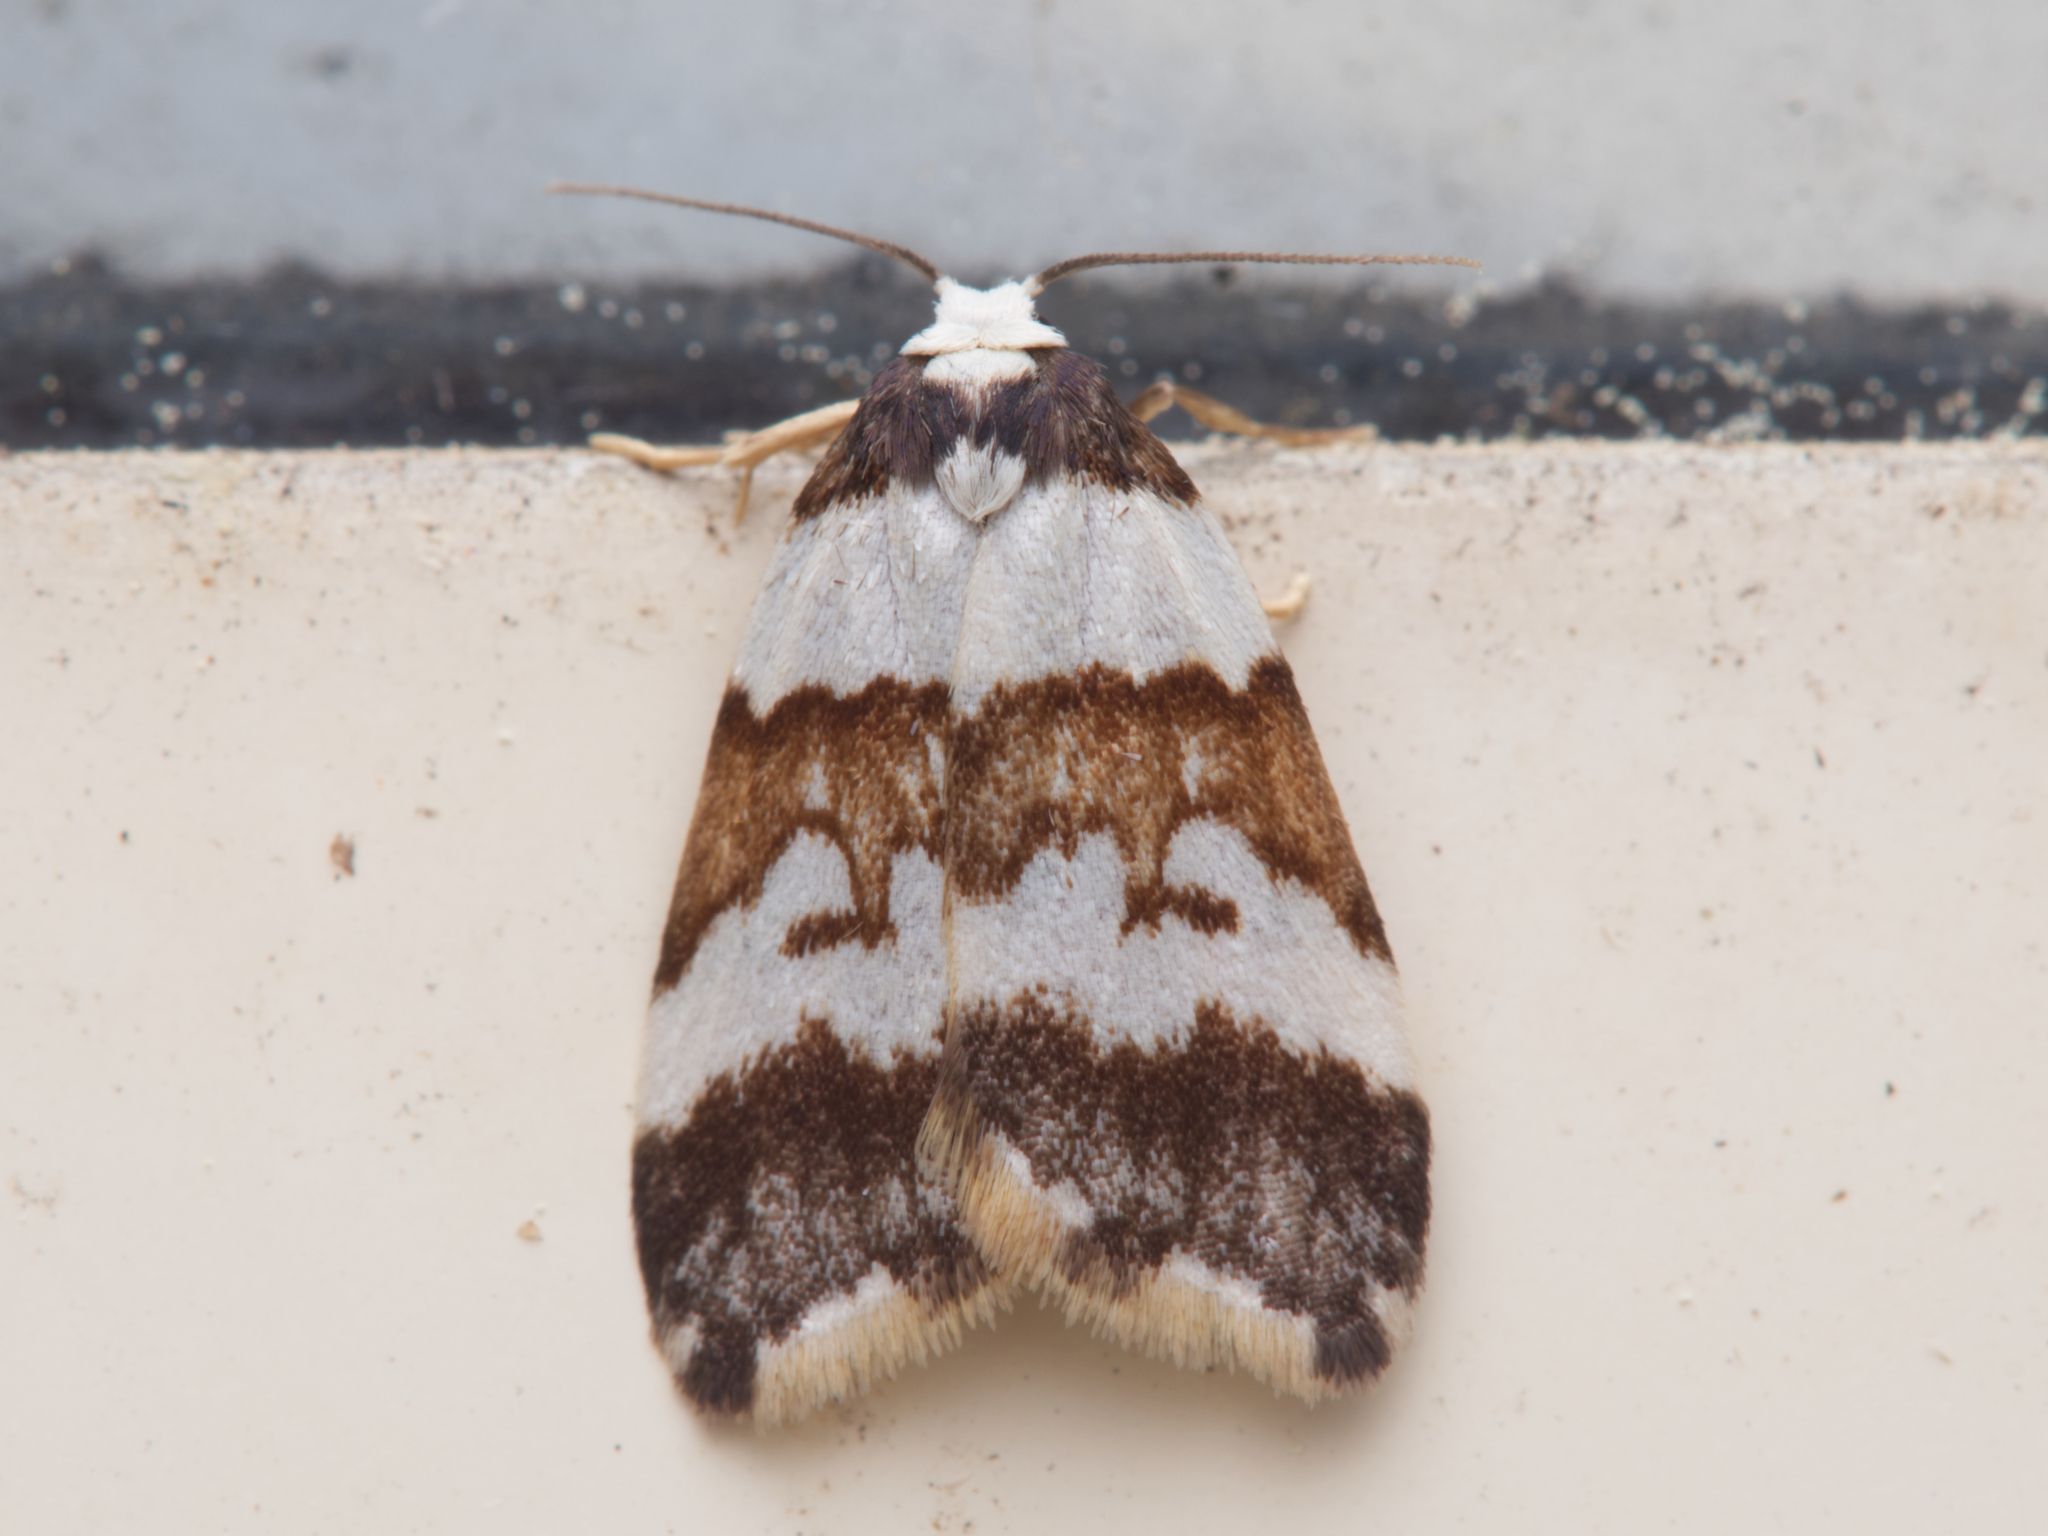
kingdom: Animalia
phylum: Arthropoda
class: Insecta
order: Lepidoptera
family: Erebidae
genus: Halone
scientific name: Halone sejuncta
